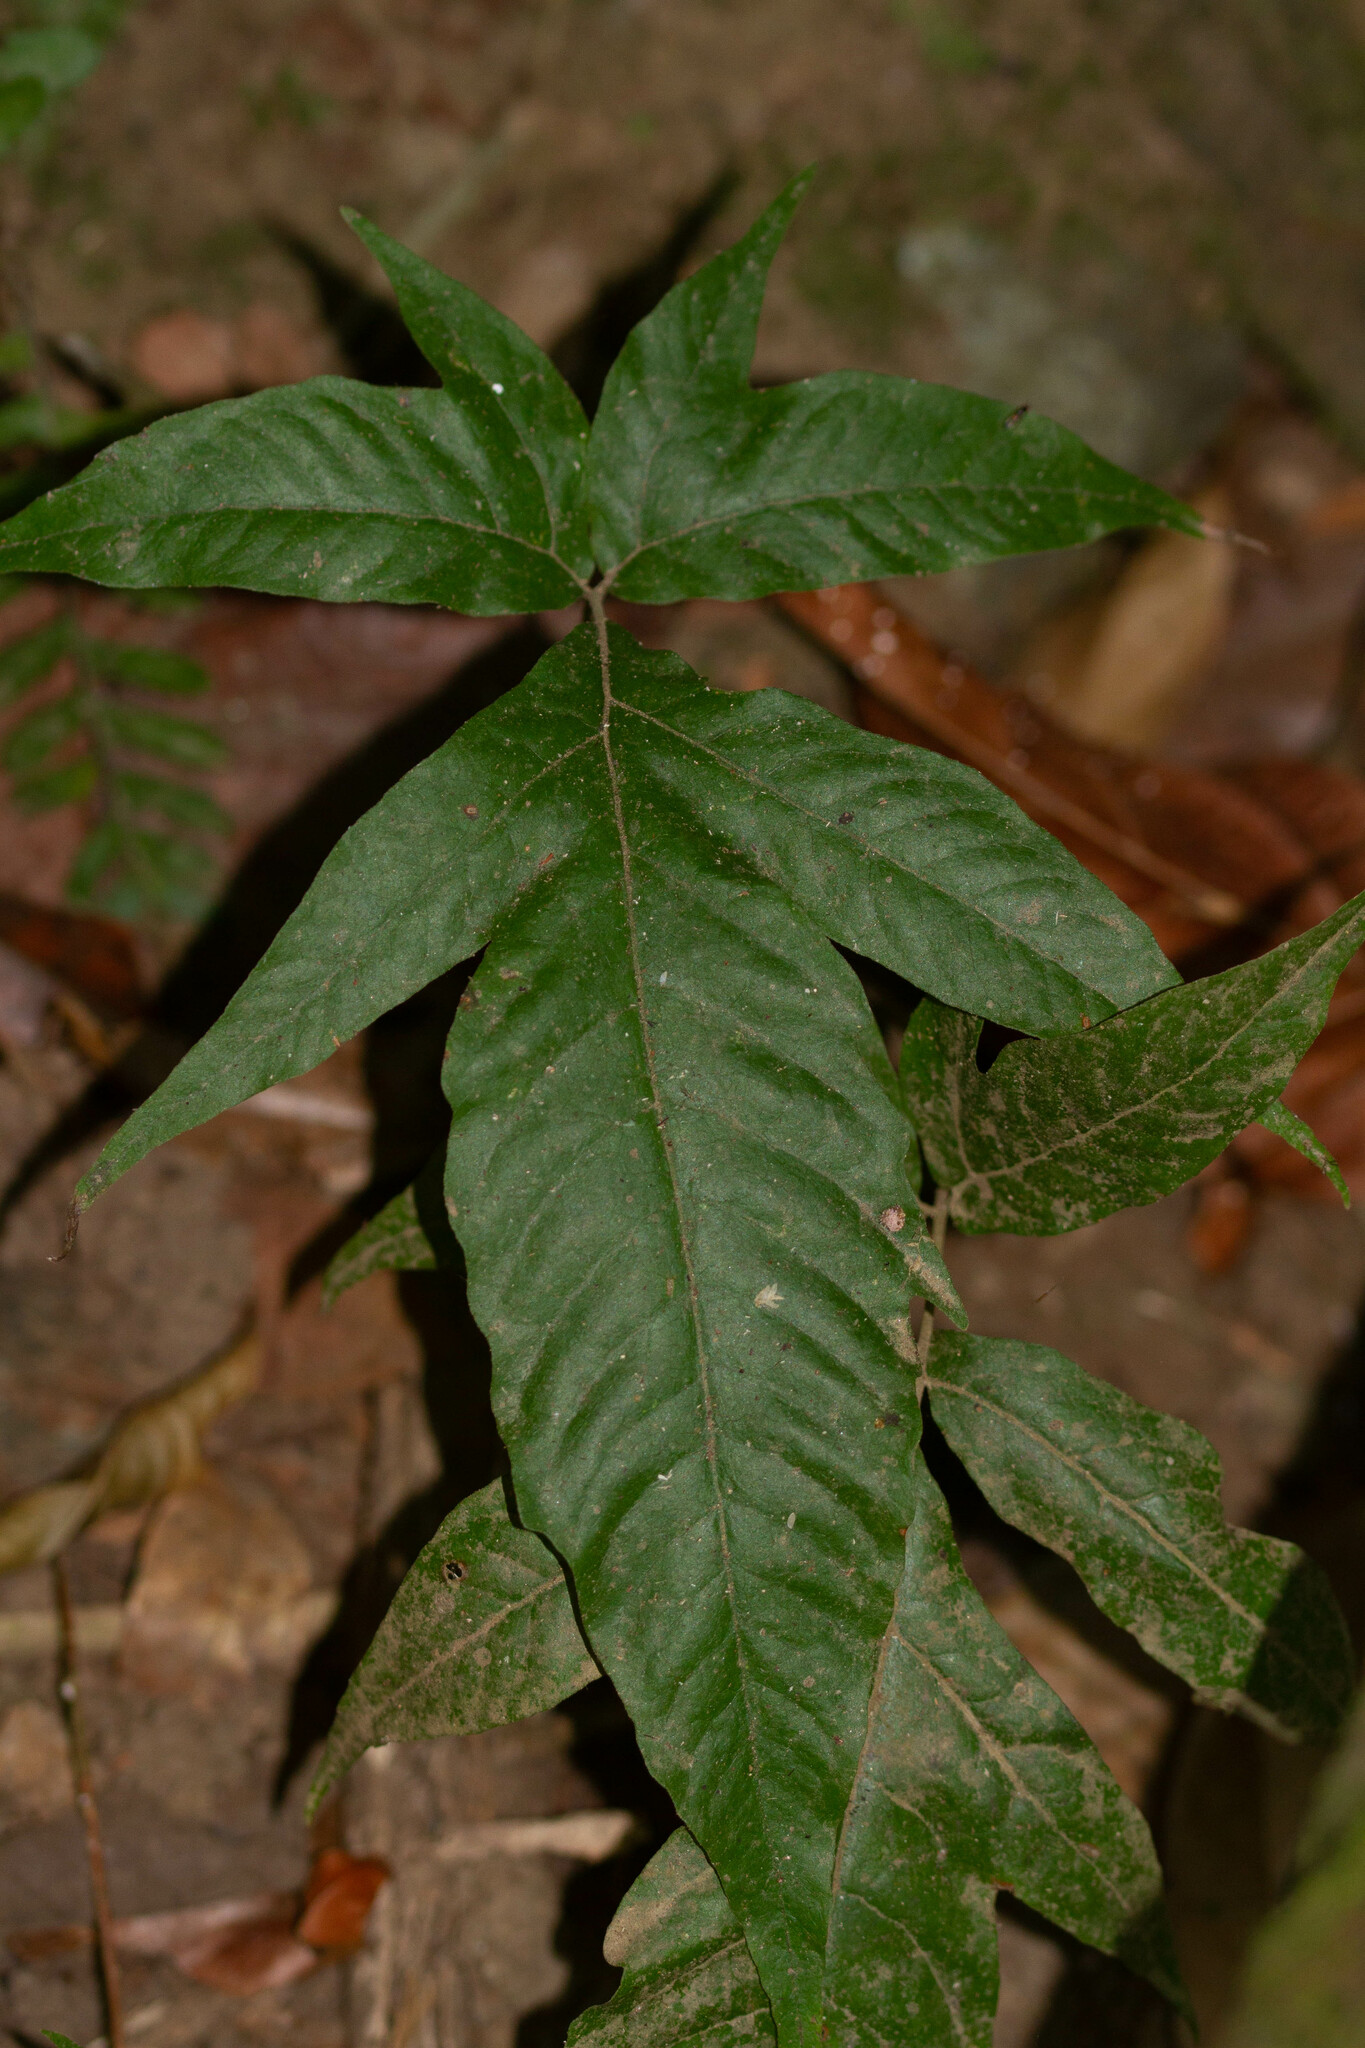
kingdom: Plantae
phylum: Tracheophyta
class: Polypodiopsida
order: Polypodiales
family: Tectariaceae
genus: Tectaria
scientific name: Tectaria
